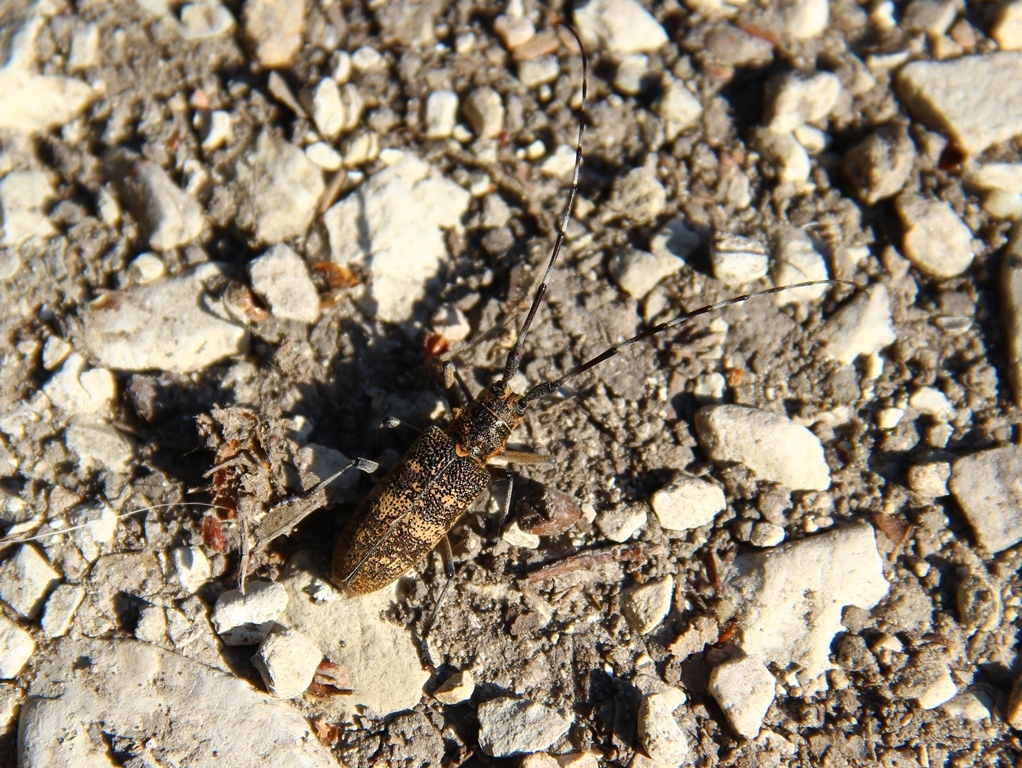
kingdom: Animalia
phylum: Arthropoda
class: Insecta
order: Coleoptera
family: Cerambycidae
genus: Monochamus
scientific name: Monochamus galloprovincialis
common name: Pine sawyer
